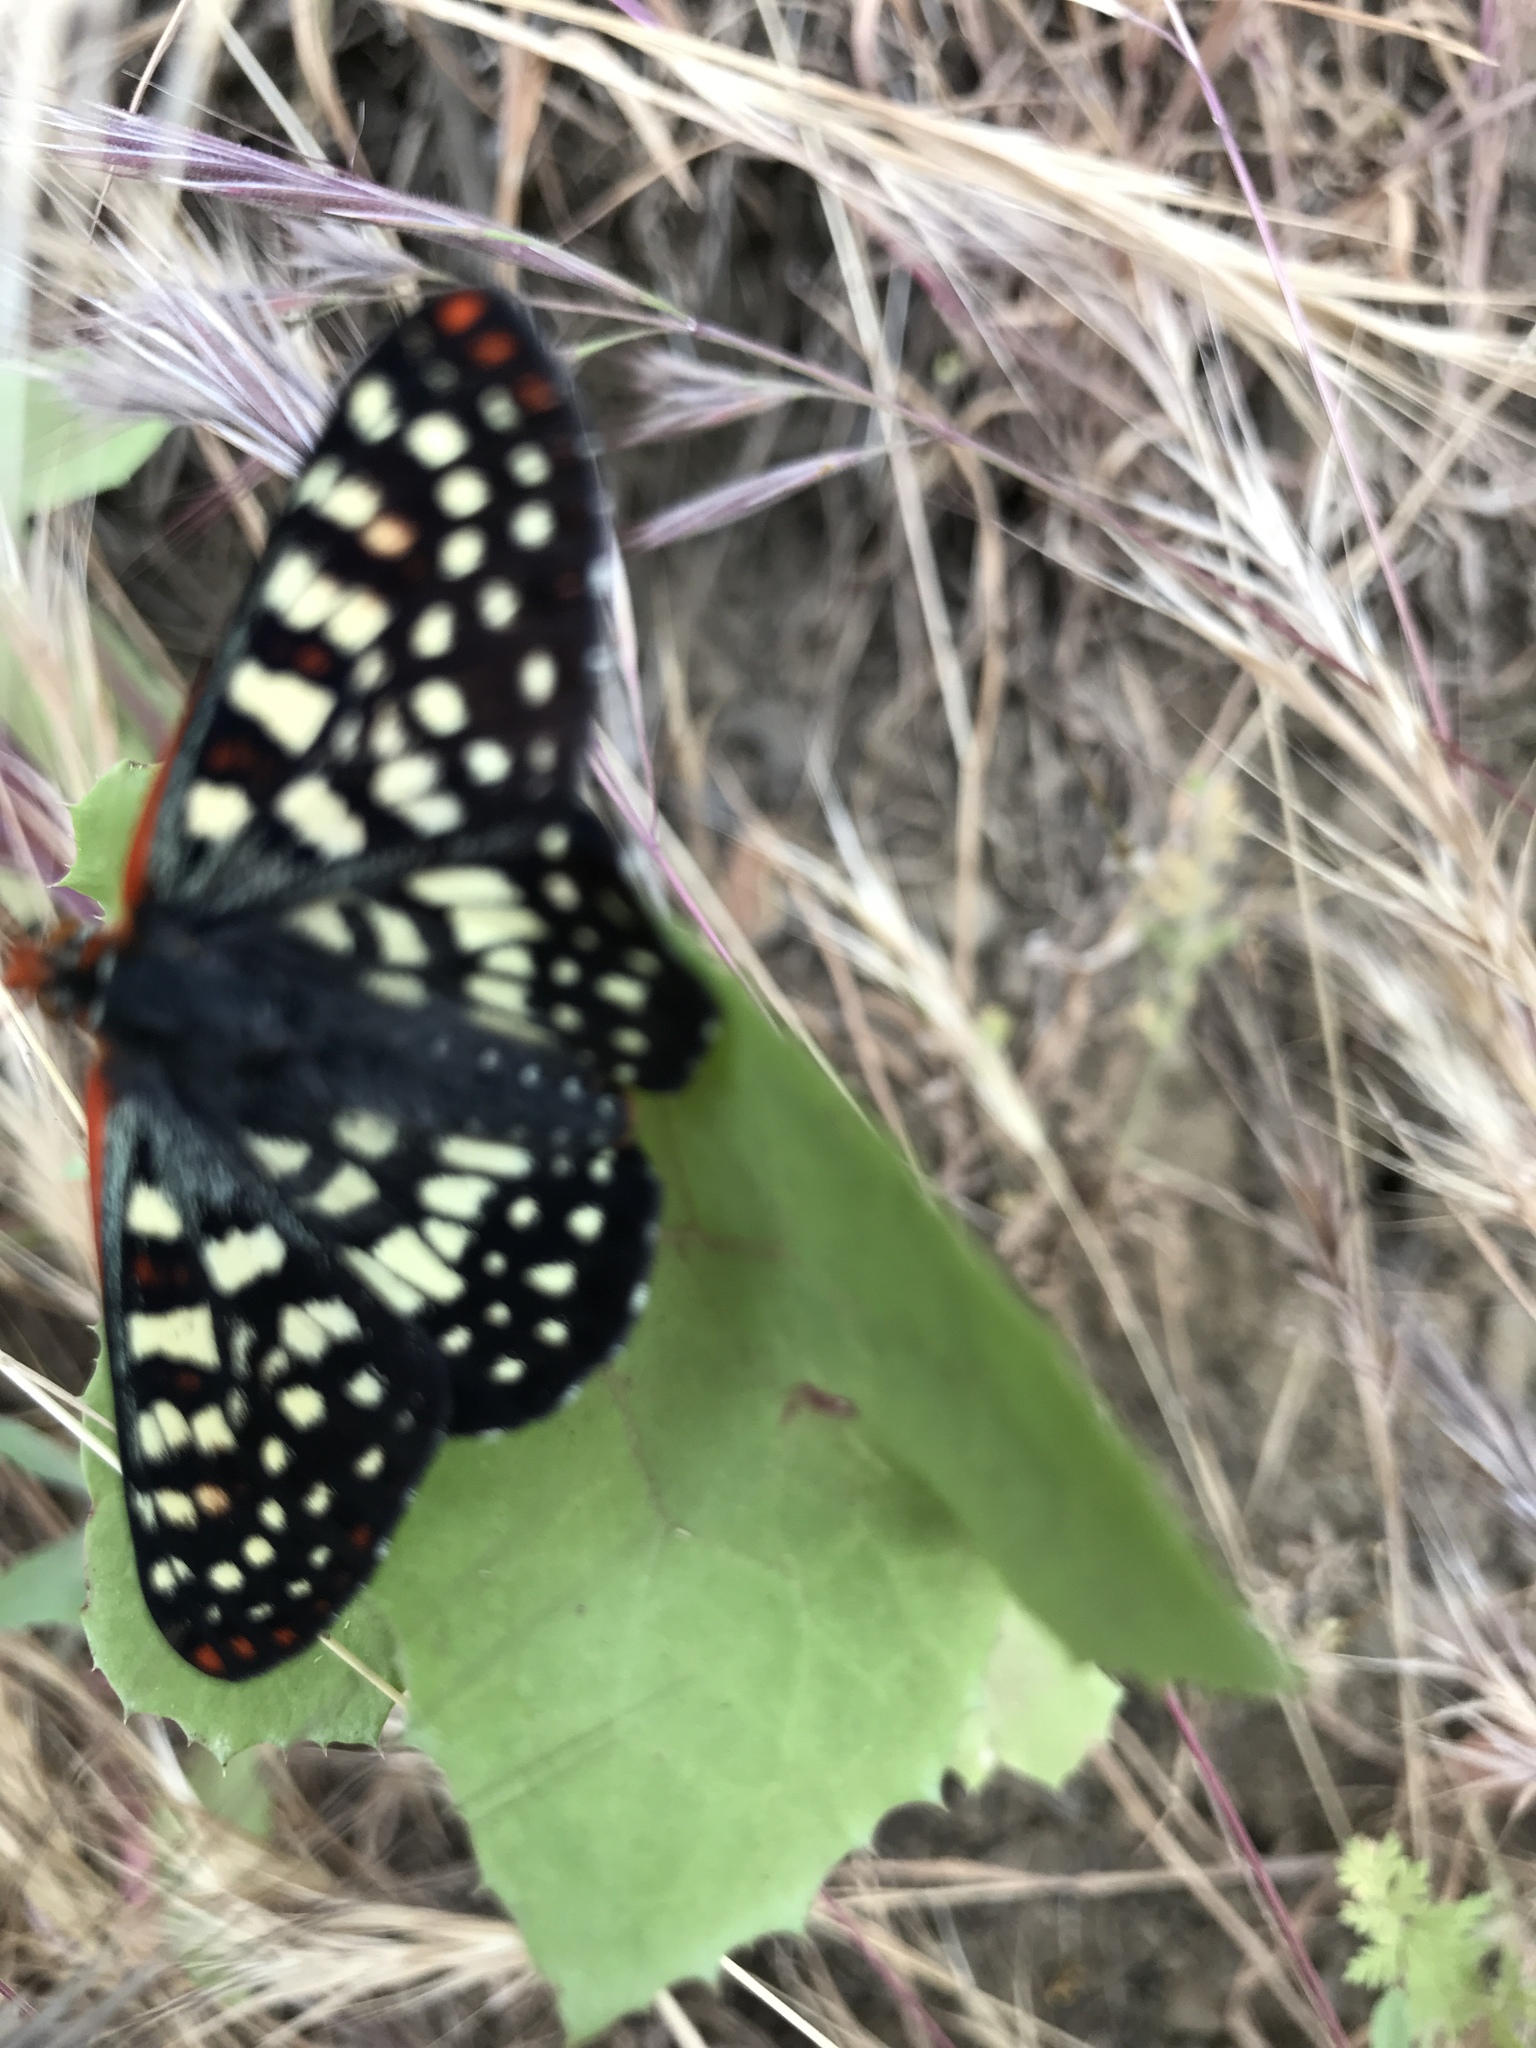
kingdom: Animalia
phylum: Arthropoda
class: Insecta
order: Lepidoptera
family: Nymphalidae
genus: Occidryas
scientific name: Occidryas chalcedona
